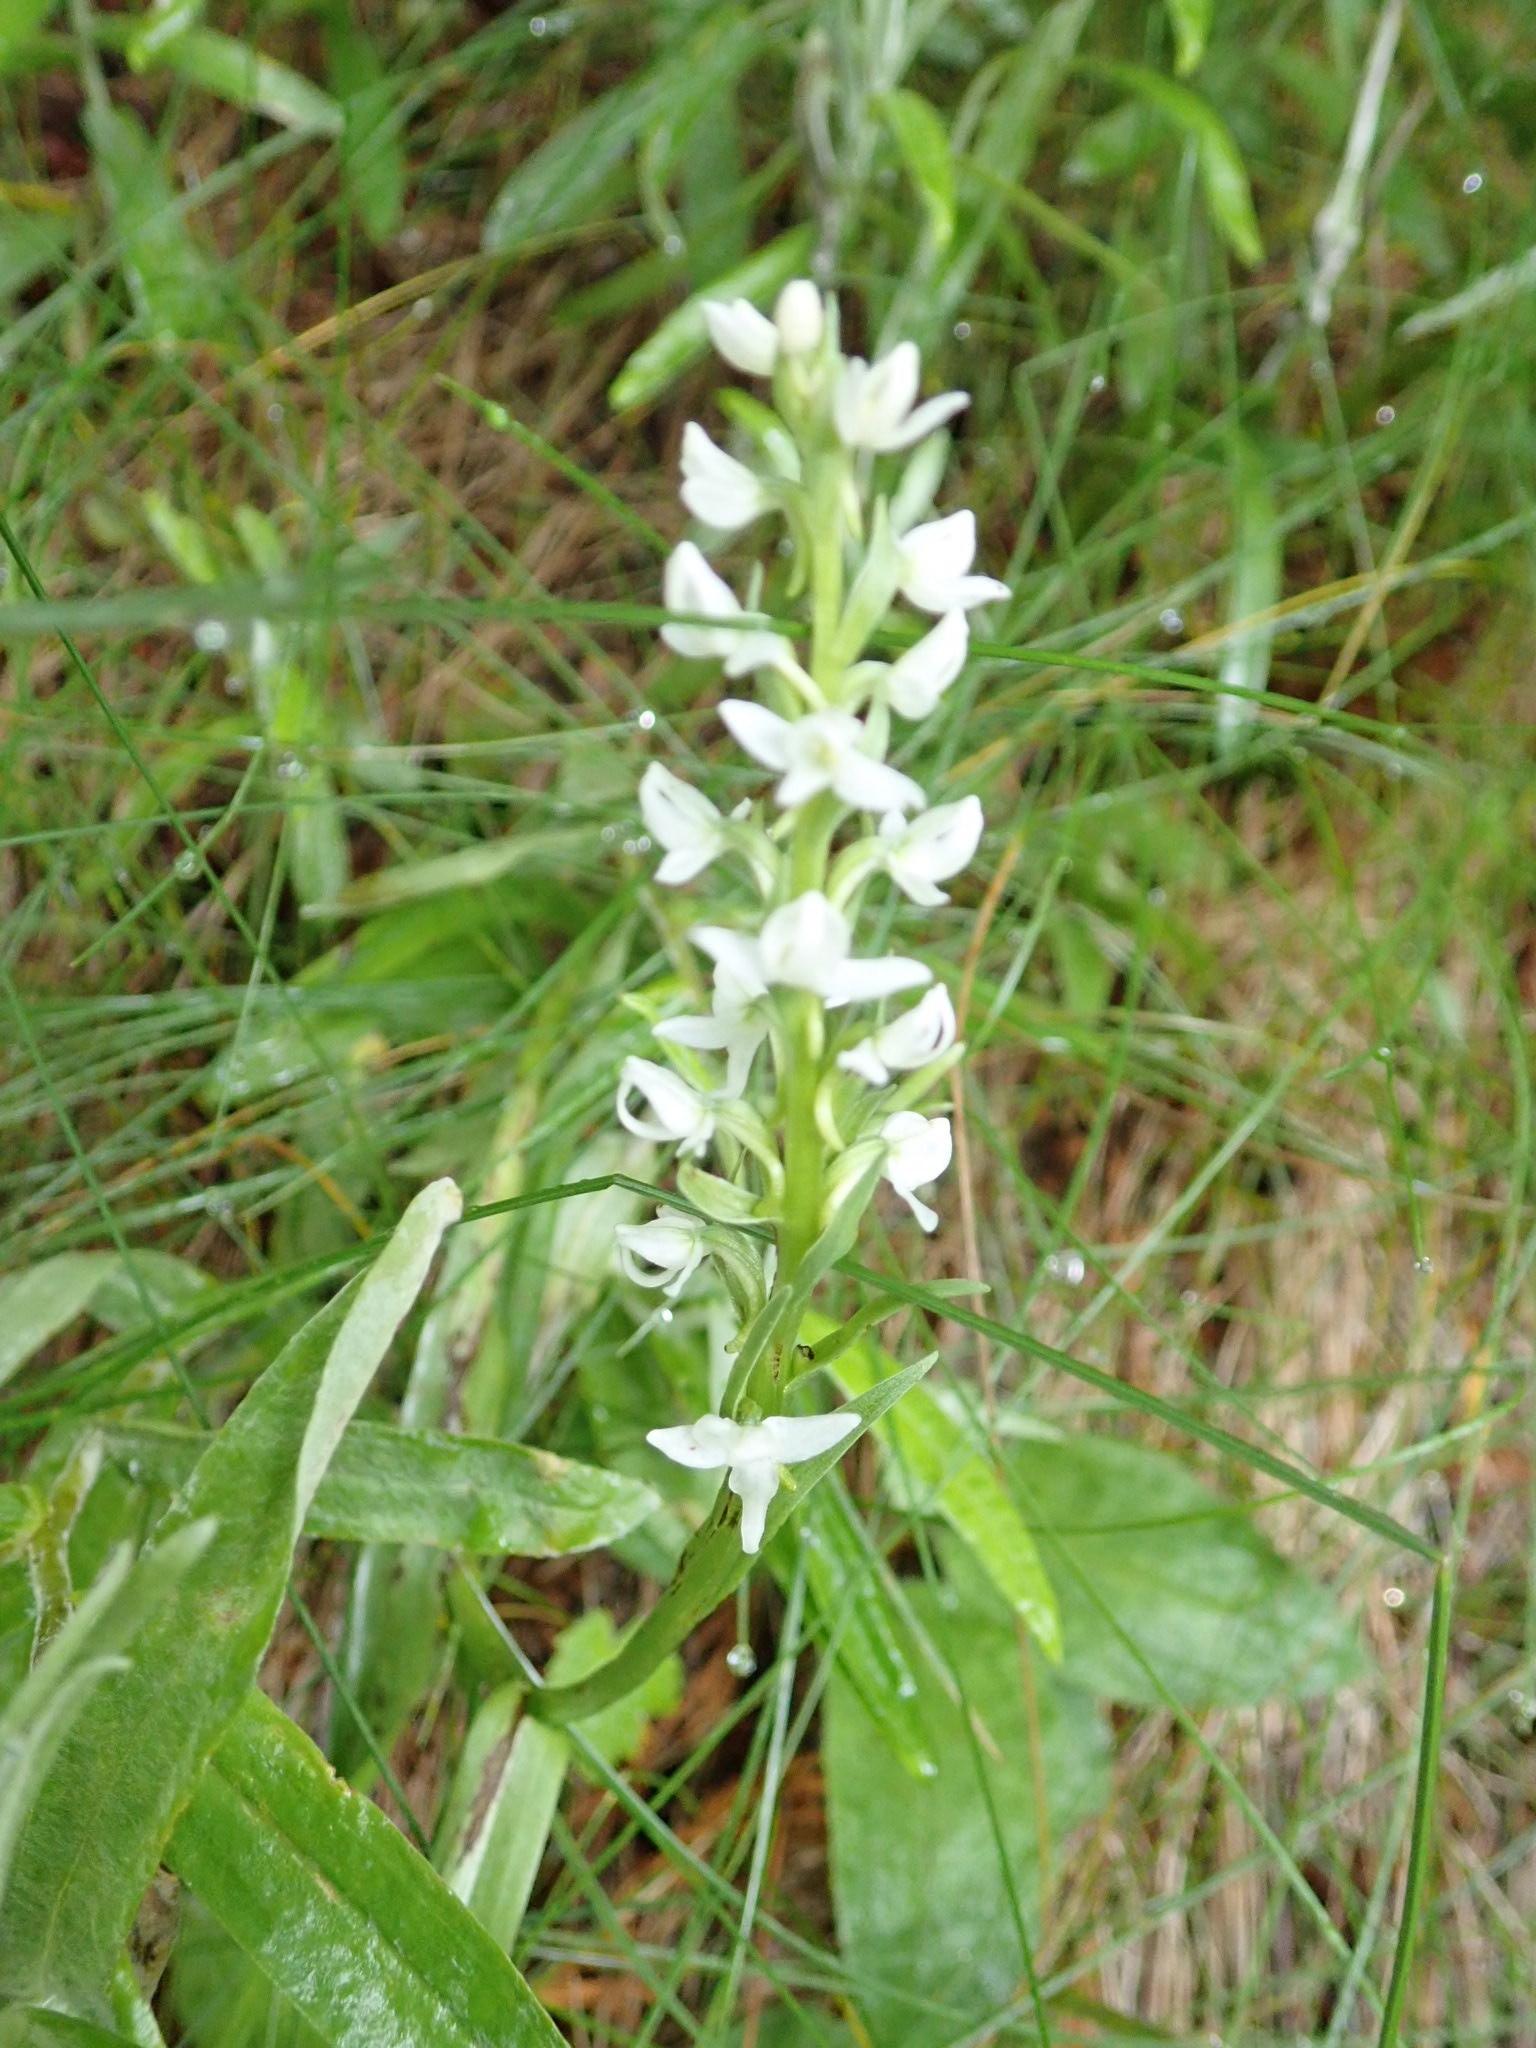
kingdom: Plantae
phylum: Tracheophyta
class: Liliopsida
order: Asparagales
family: Orchidaceae
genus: Platanthera
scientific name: Platanthera dilatata
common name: Bog candles
